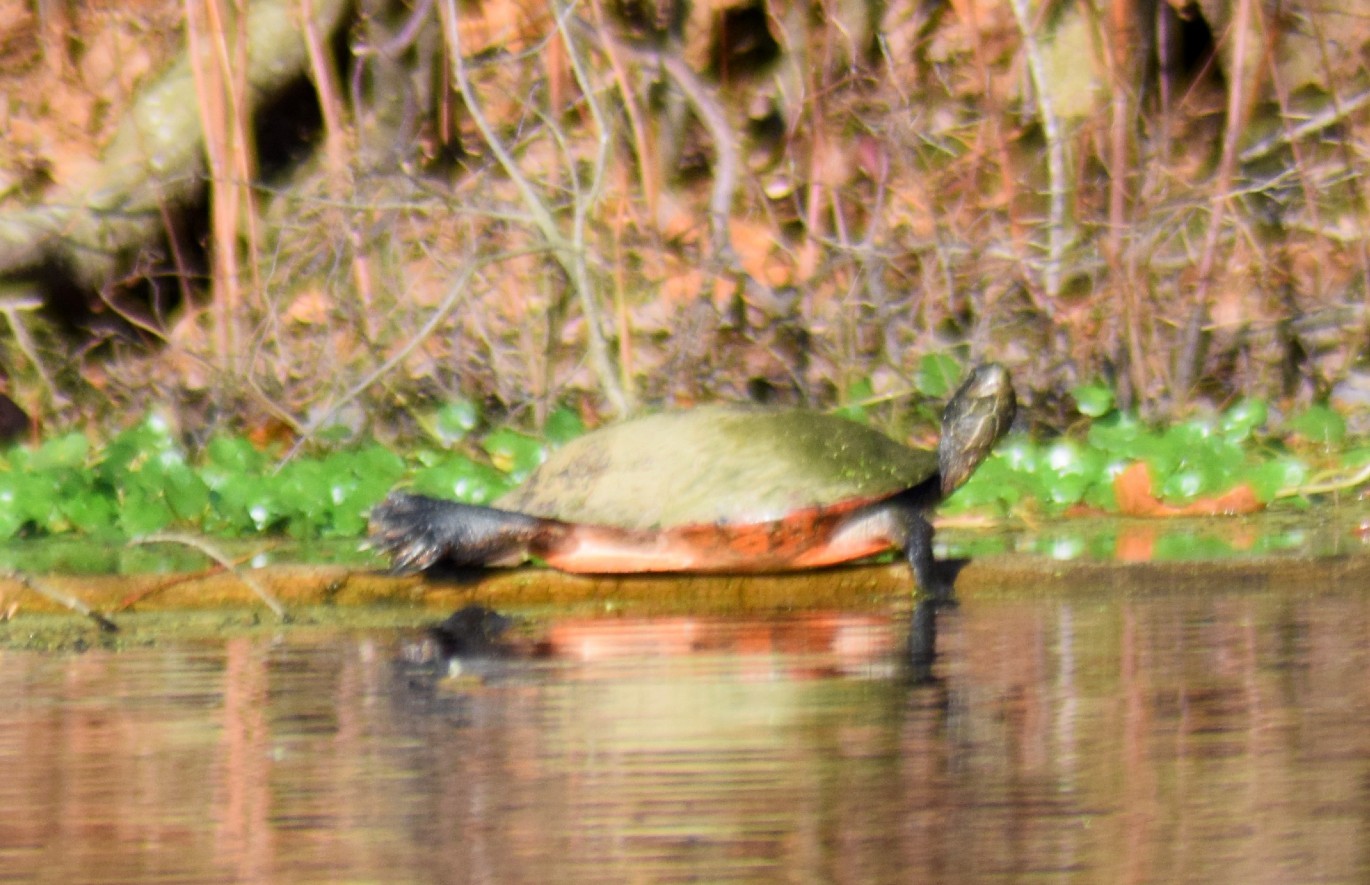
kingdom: Animalia
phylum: Chordata
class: Testudines
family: Emydidae
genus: Pseudemys
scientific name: Pseudemys rubriventris
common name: American red-bellied turtle
